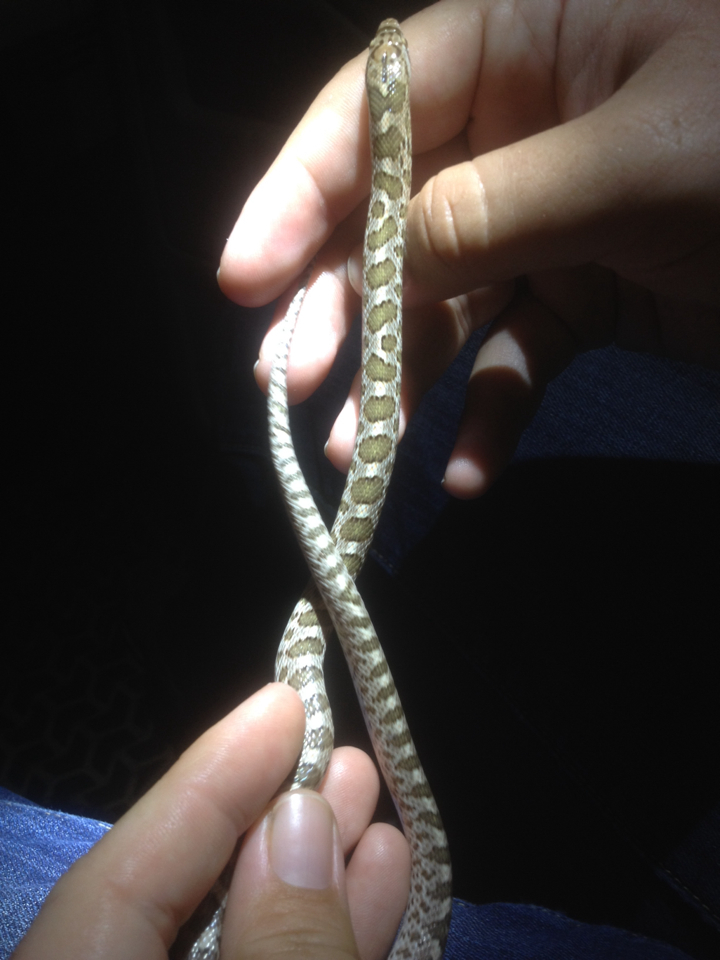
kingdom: Animalia
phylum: Chordata
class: Squamata
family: Colubridae
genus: Arizona
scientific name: Arizona elegans
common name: Glossy snake
